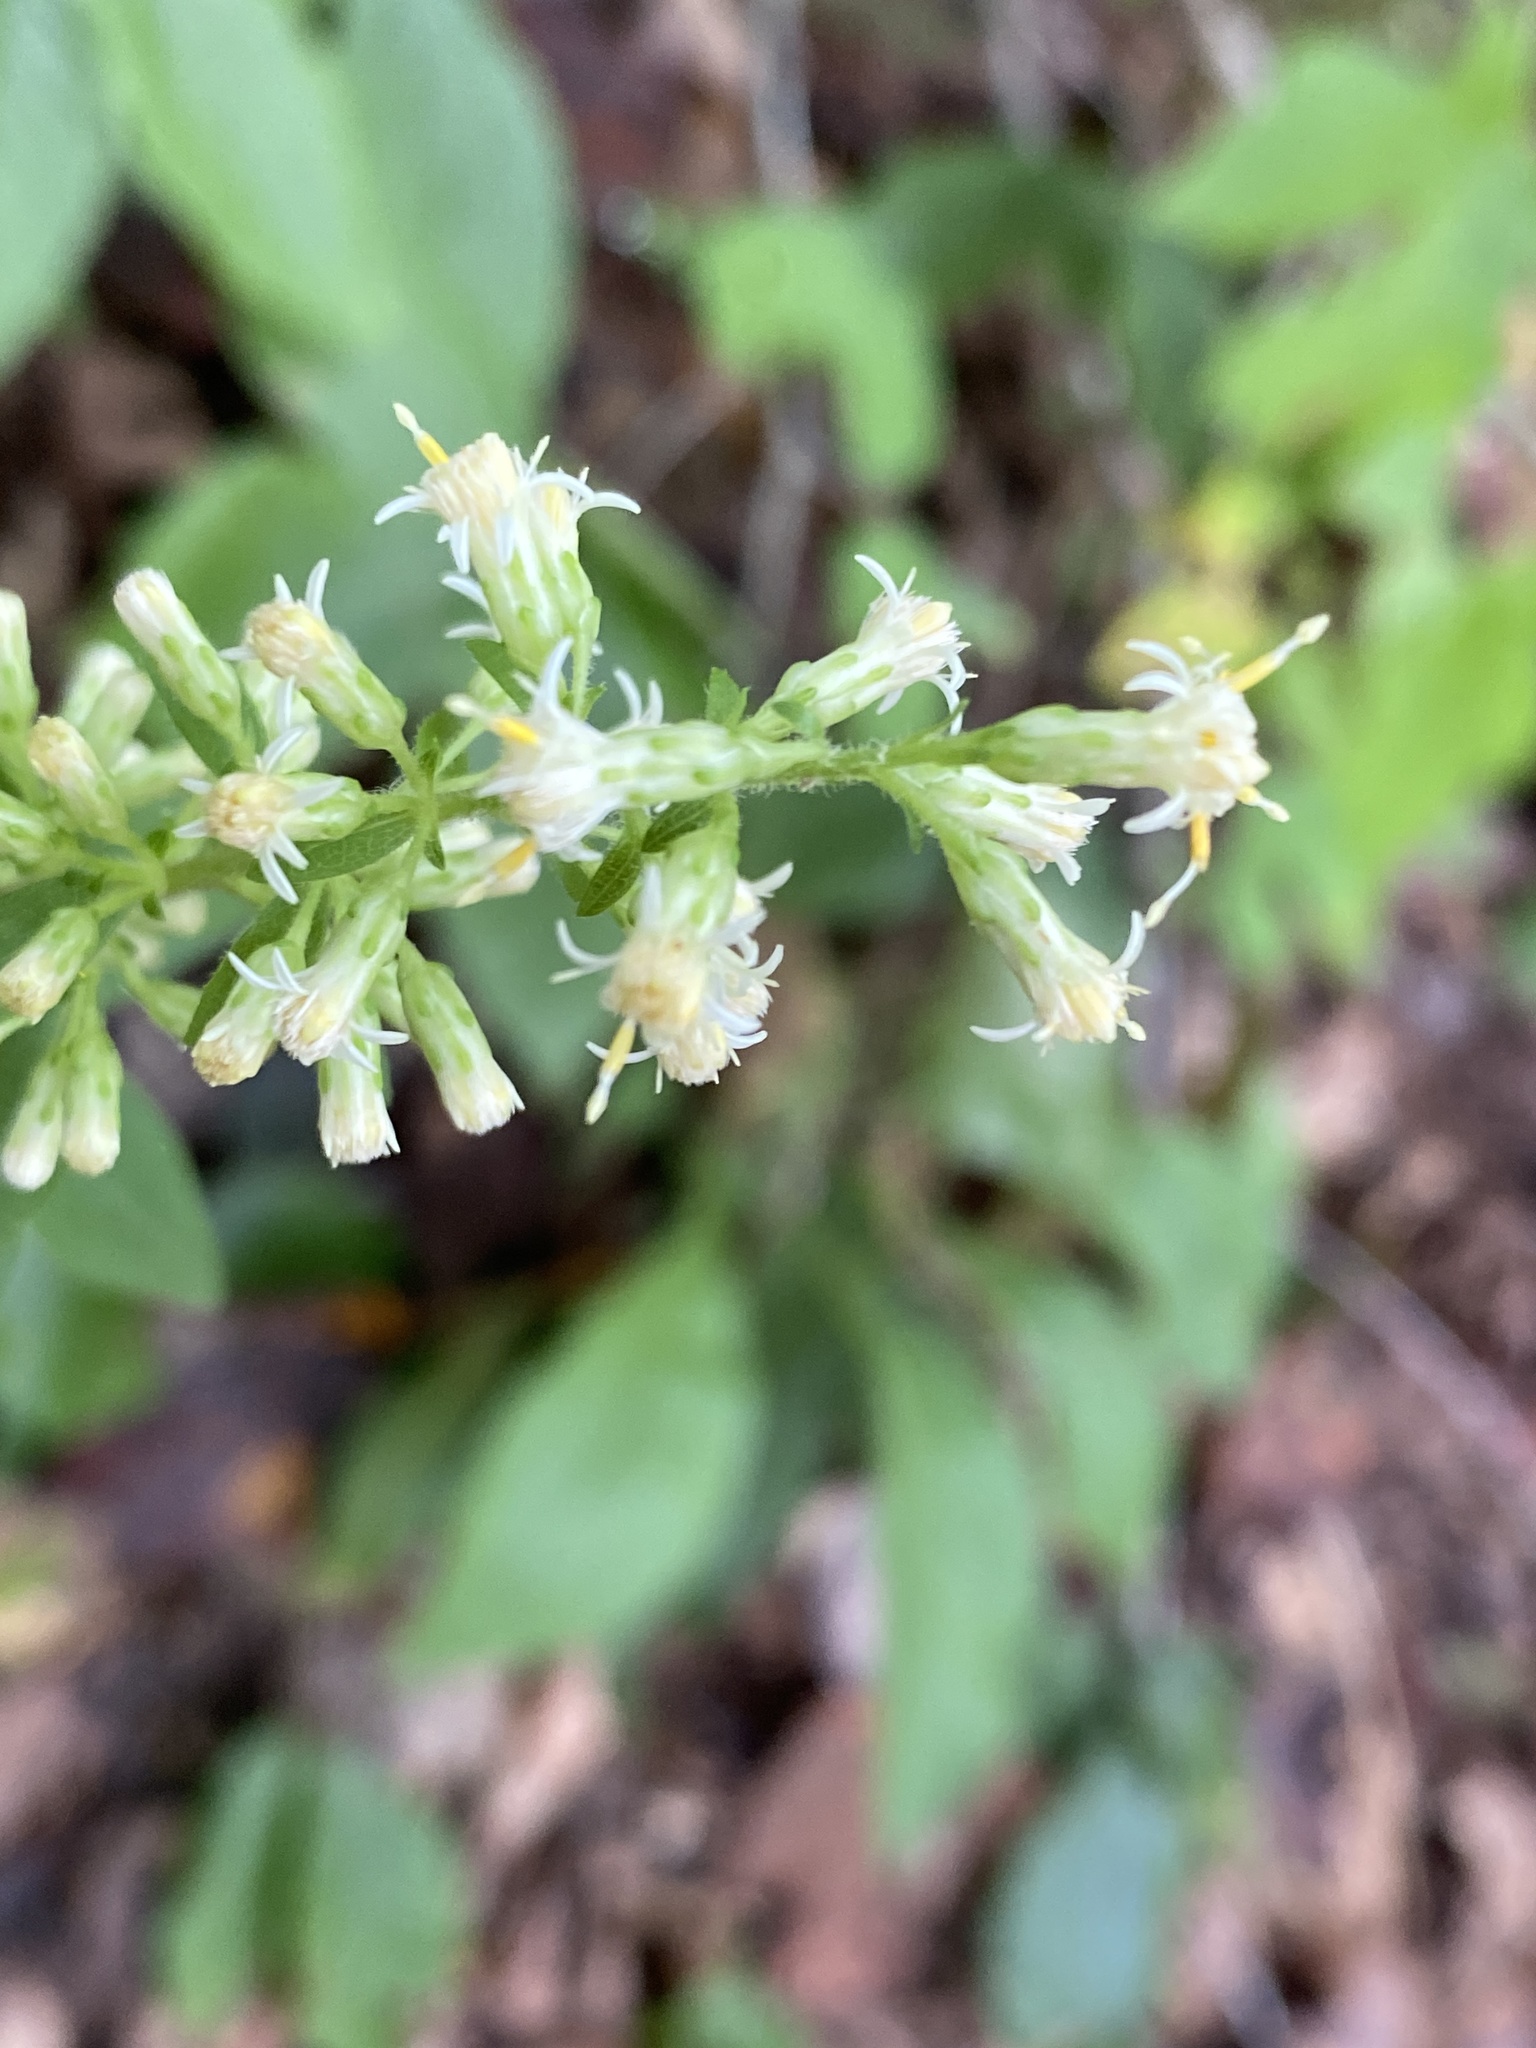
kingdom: Plantae
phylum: Tracheophyta
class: Magnoliopsida
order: Asterales
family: Asteraceae
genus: Solidago
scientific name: Solidago bicolor
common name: Silverrod
